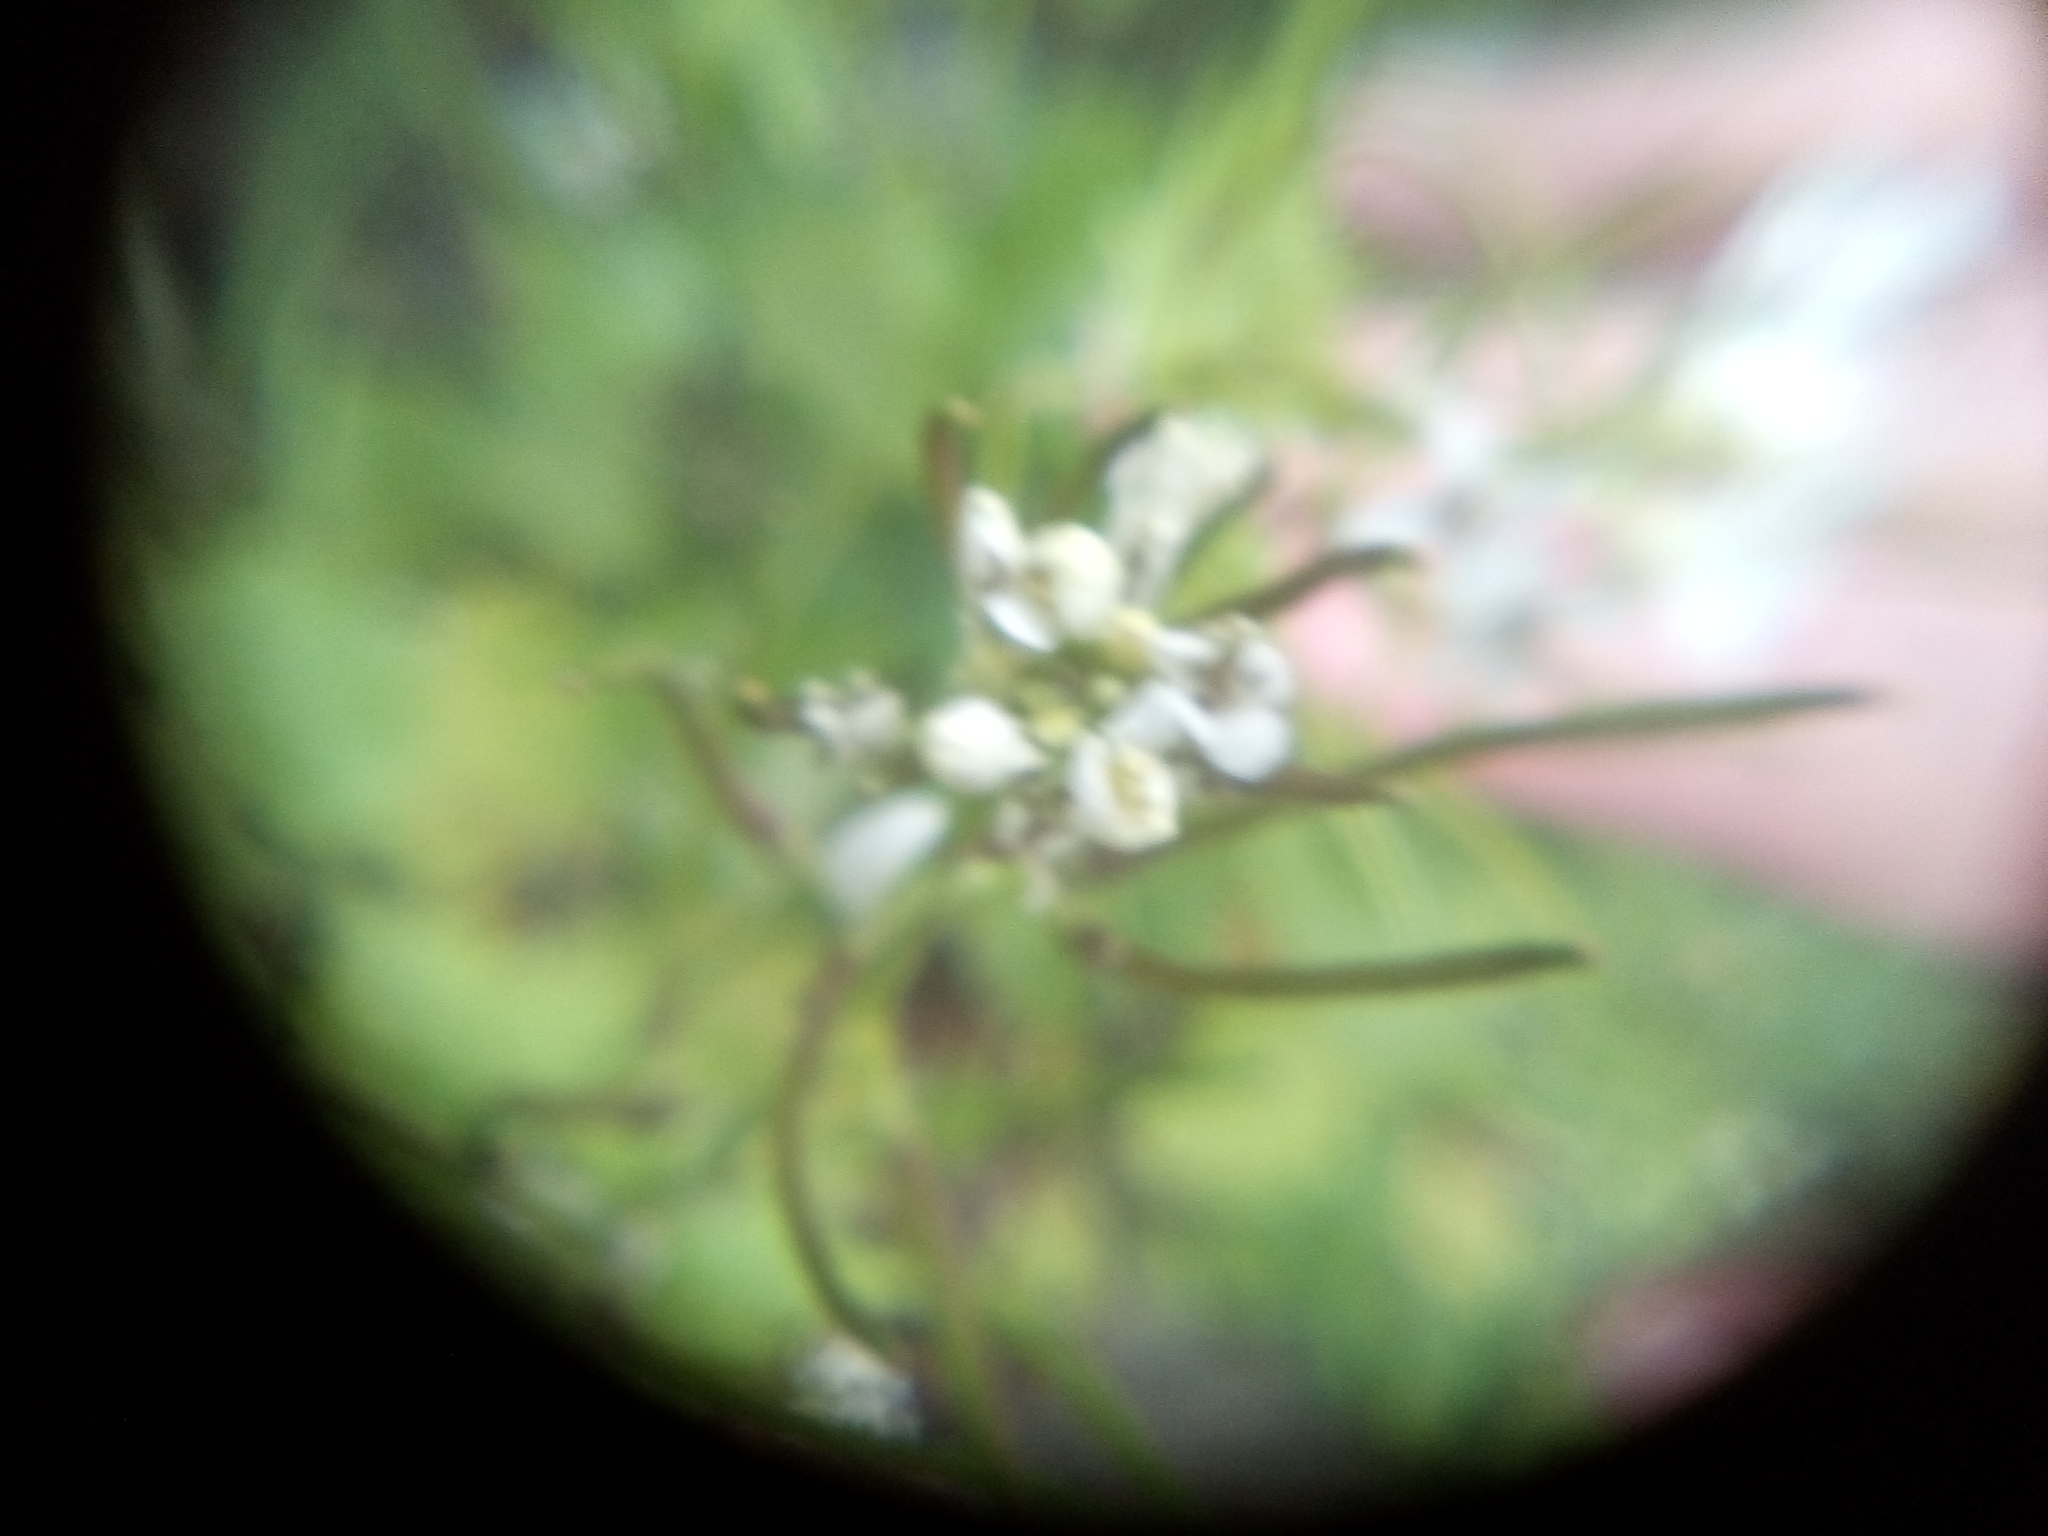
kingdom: Plantae
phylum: Tracheophyta
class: Magnoliopsida
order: Brassicales
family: Brassicaceae
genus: Alliaria
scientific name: Alliaria petiolata
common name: Garlic mustard
